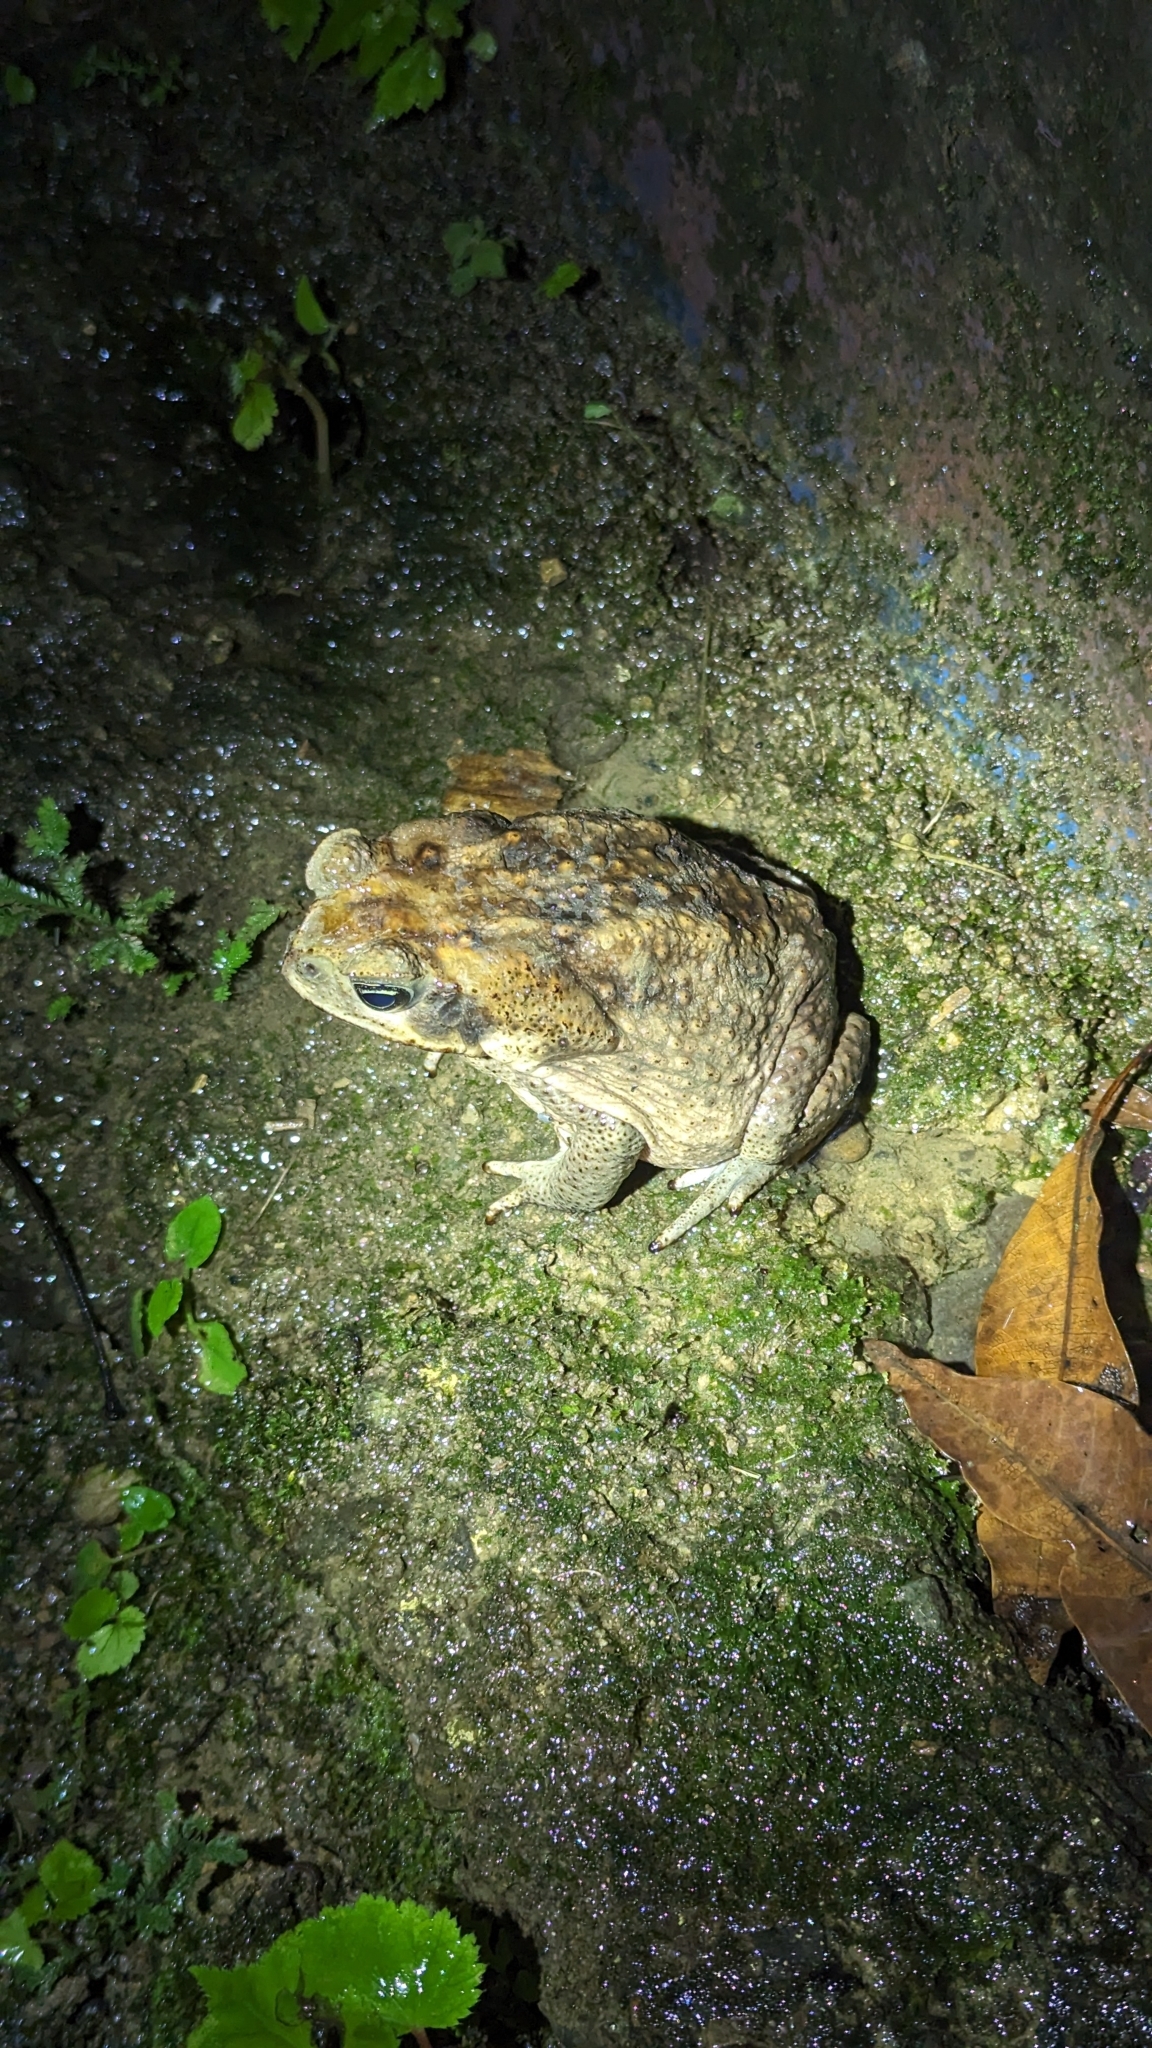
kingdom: Animalia
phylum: Chordata
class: Amphibia
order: Anura
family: Bufonidae
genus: Rhinella
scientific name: Rhinella horribilis
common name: Mesoamerican cane toad
